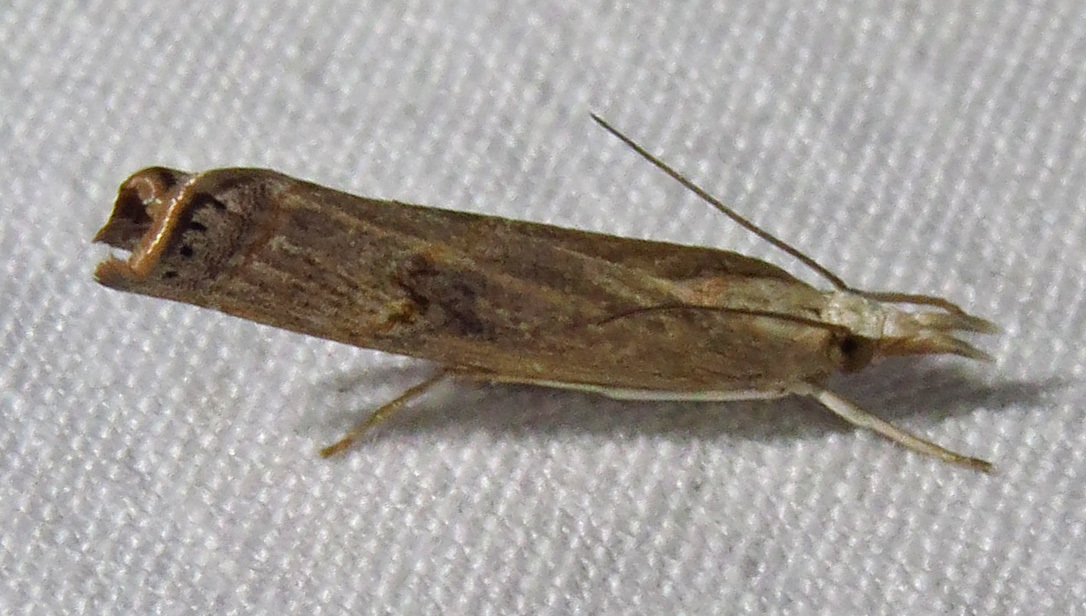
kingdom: Animalia
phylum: Arthropoda
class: Insecta
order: Lepidoptera
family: Crambidae
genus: Parapediasia
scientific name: Parapediasia teterellus
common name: Bluegrass webworm moth
